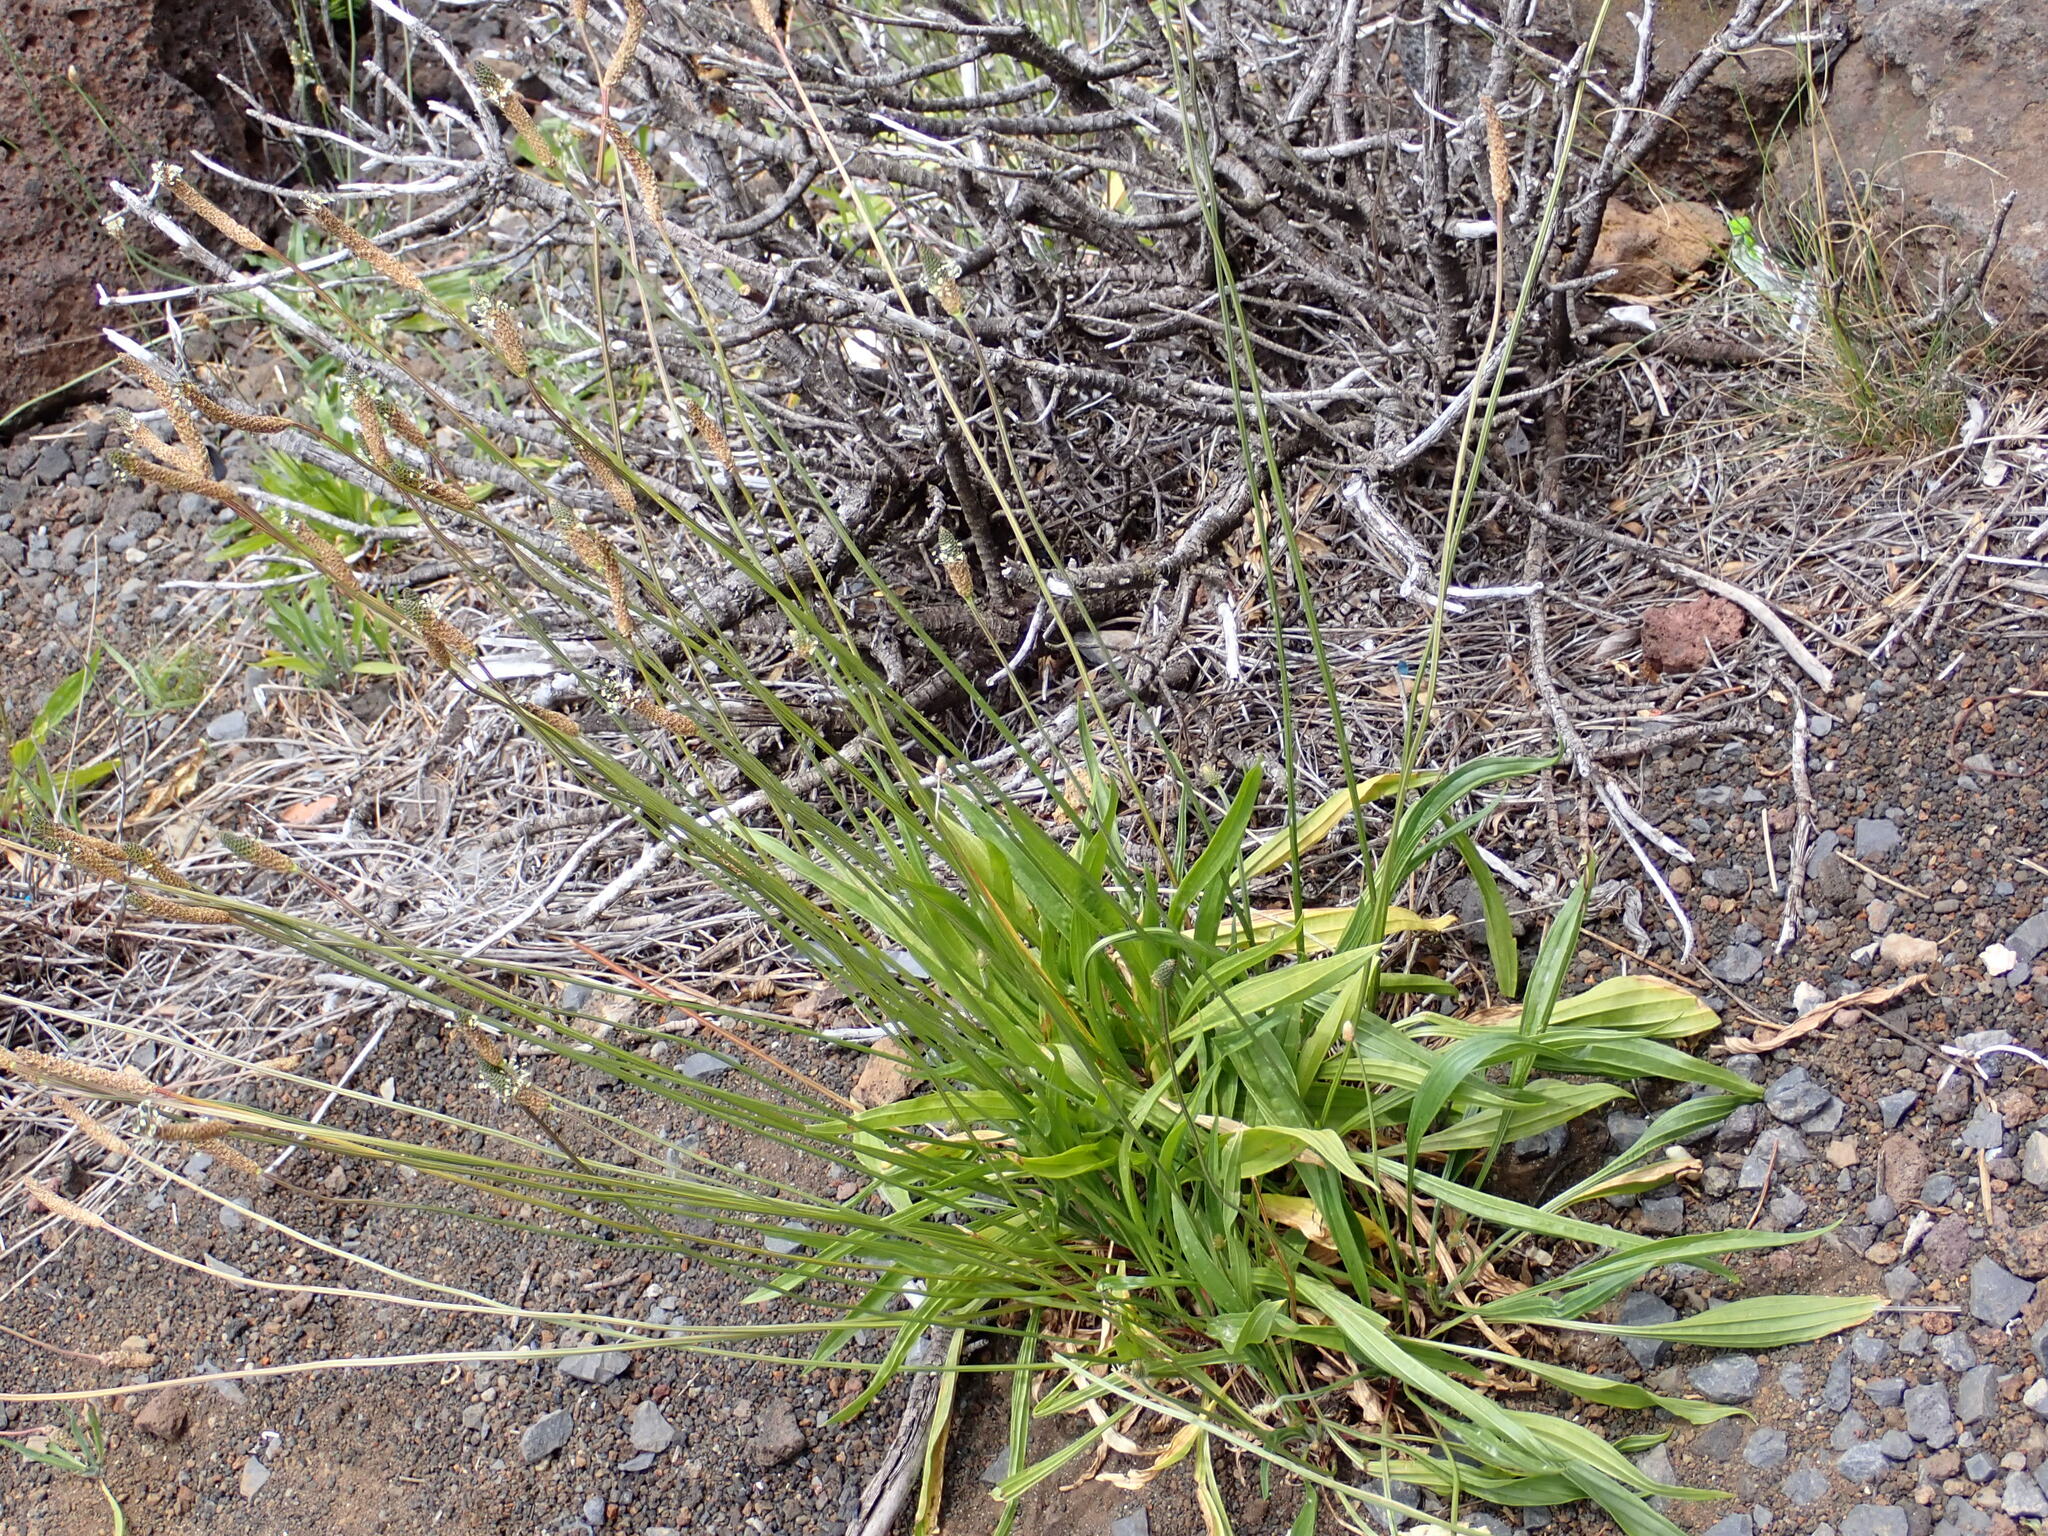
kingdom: Plantae
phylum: Tracheophyta
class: Magnoliopsida
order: Lamiales
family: Plantaginaceae
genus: Plantago
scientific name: Plantago lanceolata
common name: Ribwort plantain
